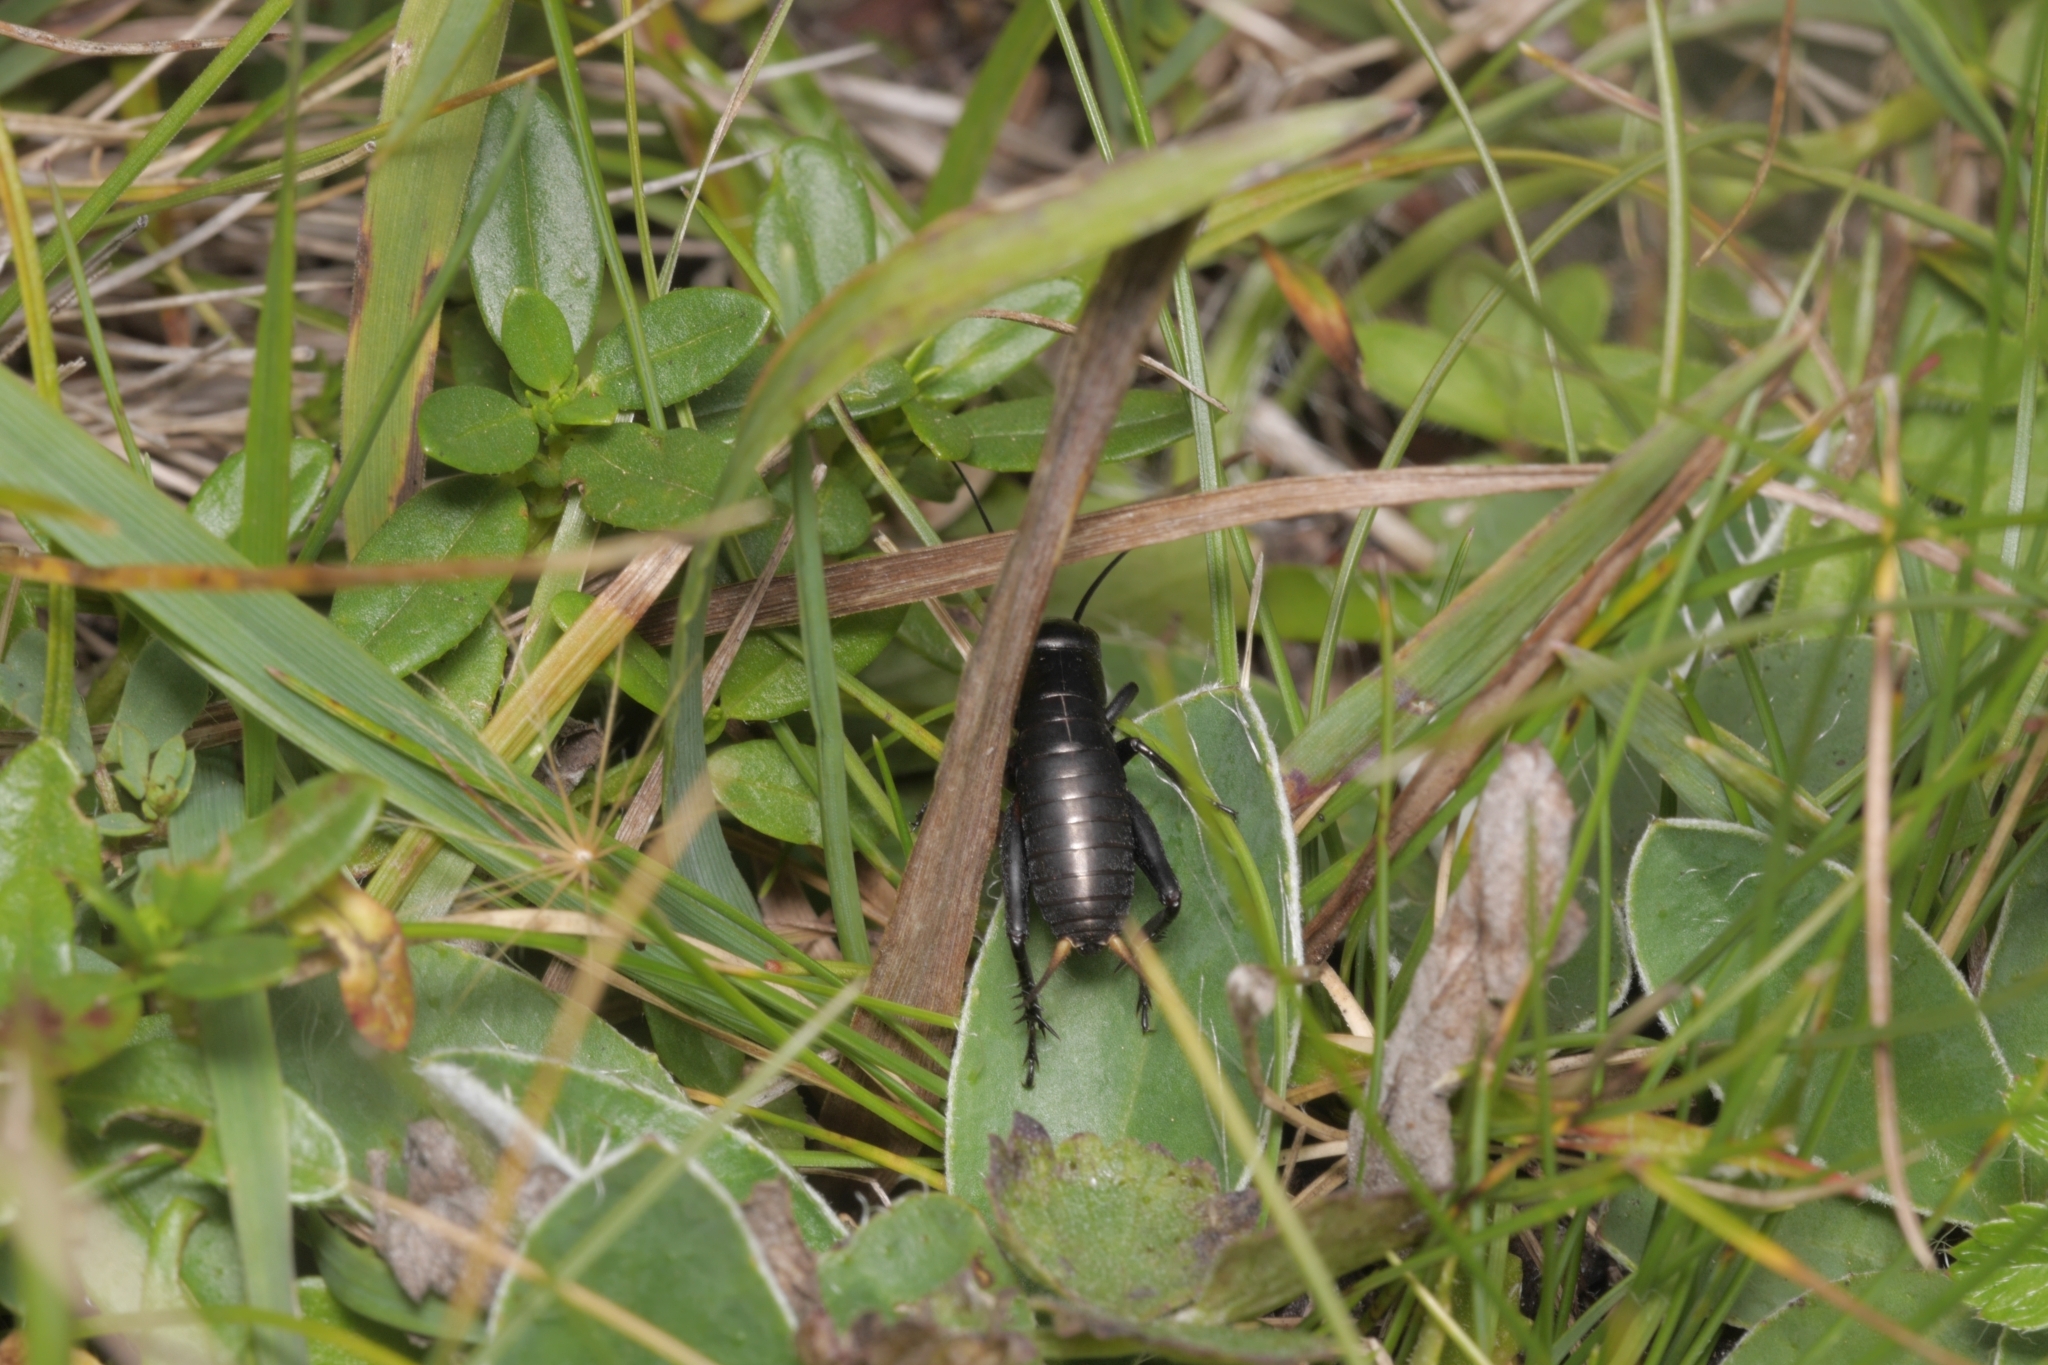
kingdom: Animalia
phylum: Arthropoda
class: Insecta
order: Orthoptera
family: Gryllidae
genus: Gryllus
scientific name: Gryllus campestris
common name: Field cricket
